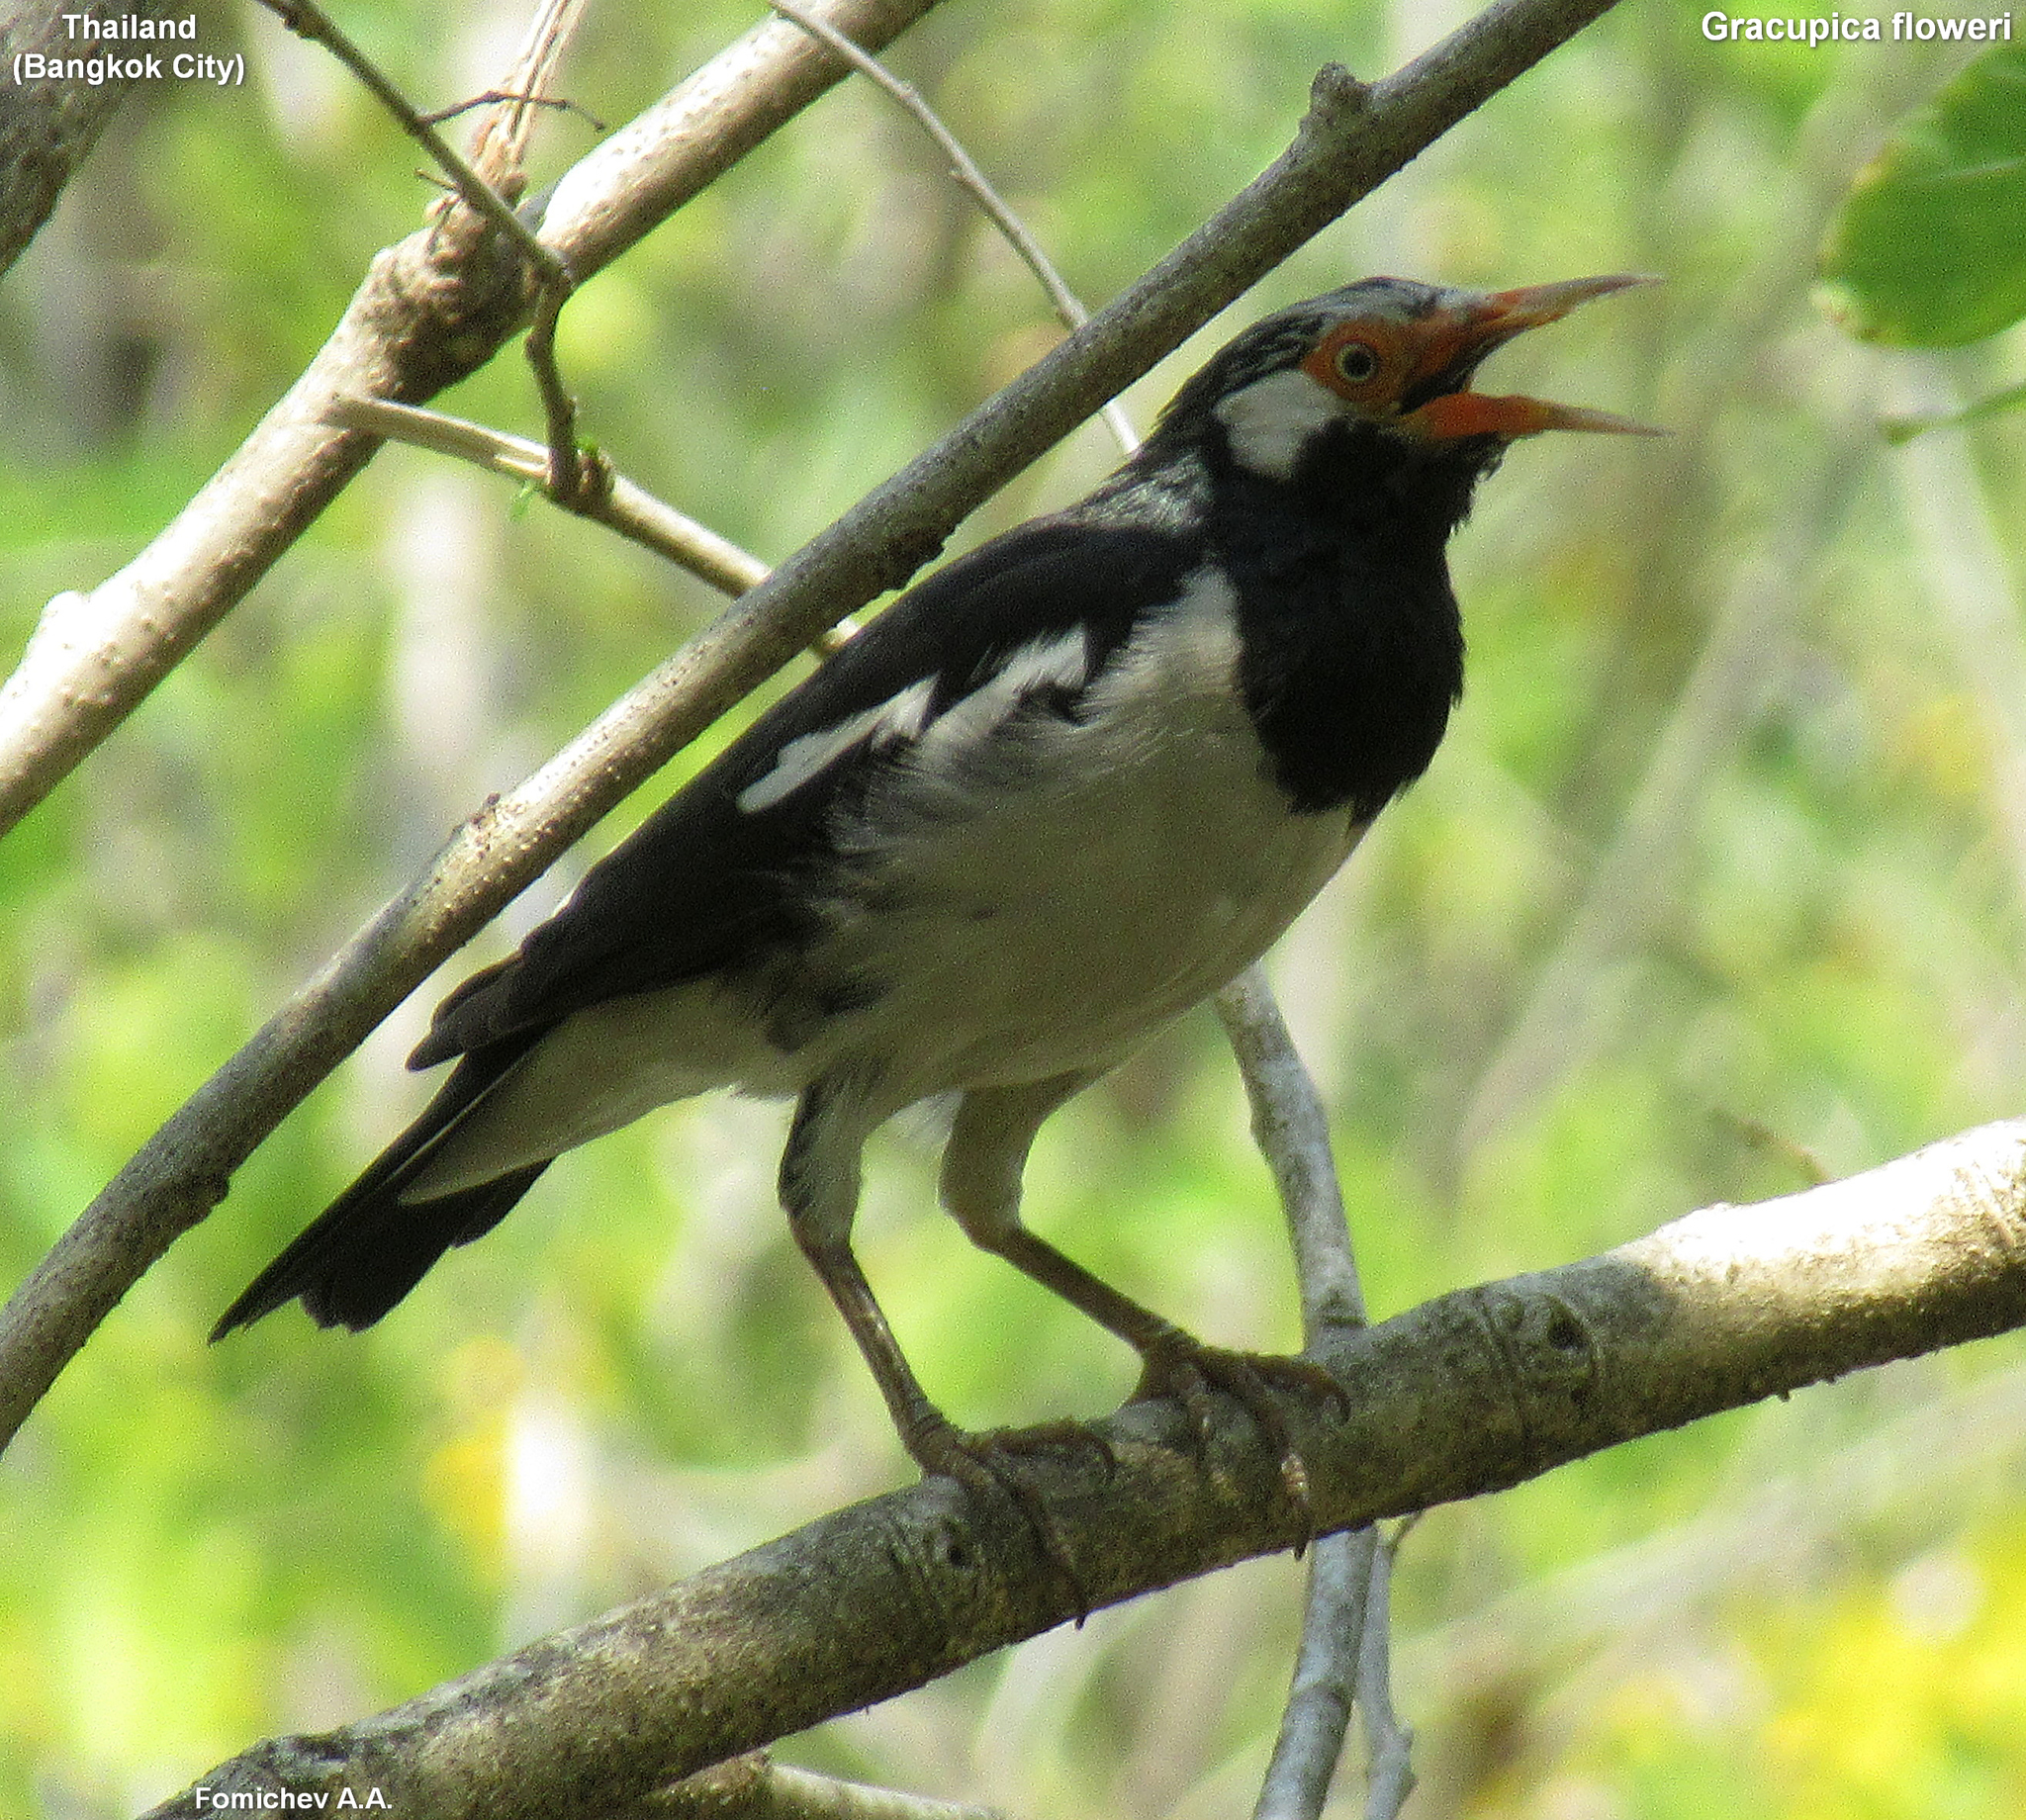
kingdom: Animalia
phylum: Chordata
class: Aves
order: Passeriformes
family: Sturnidae
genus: Gracupica
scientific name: Gracupica contra
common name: Pied myna
